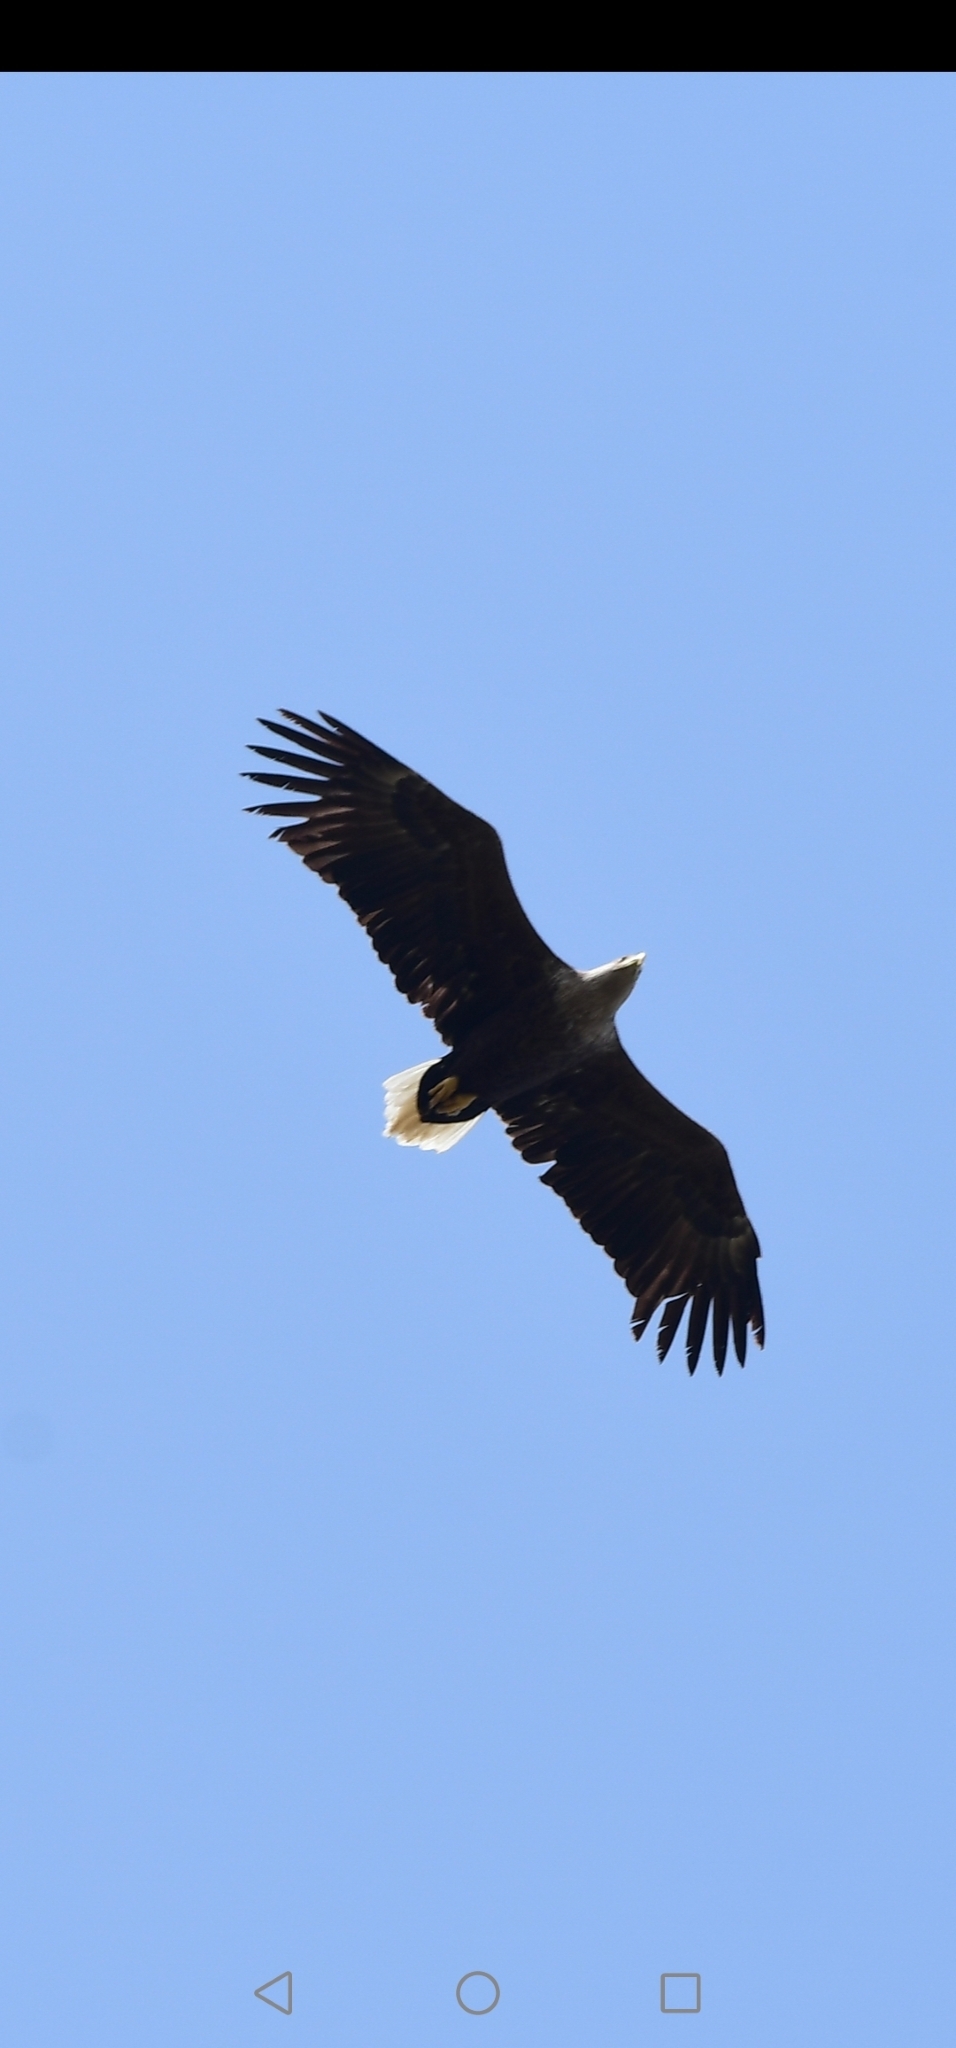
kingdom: Animalia
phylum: Chordata
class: Aves
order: Accipitriformes
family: Accipitridae
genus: Haliaeetus
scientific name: Haliaeetus albicilla
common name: White-tailed eagle
